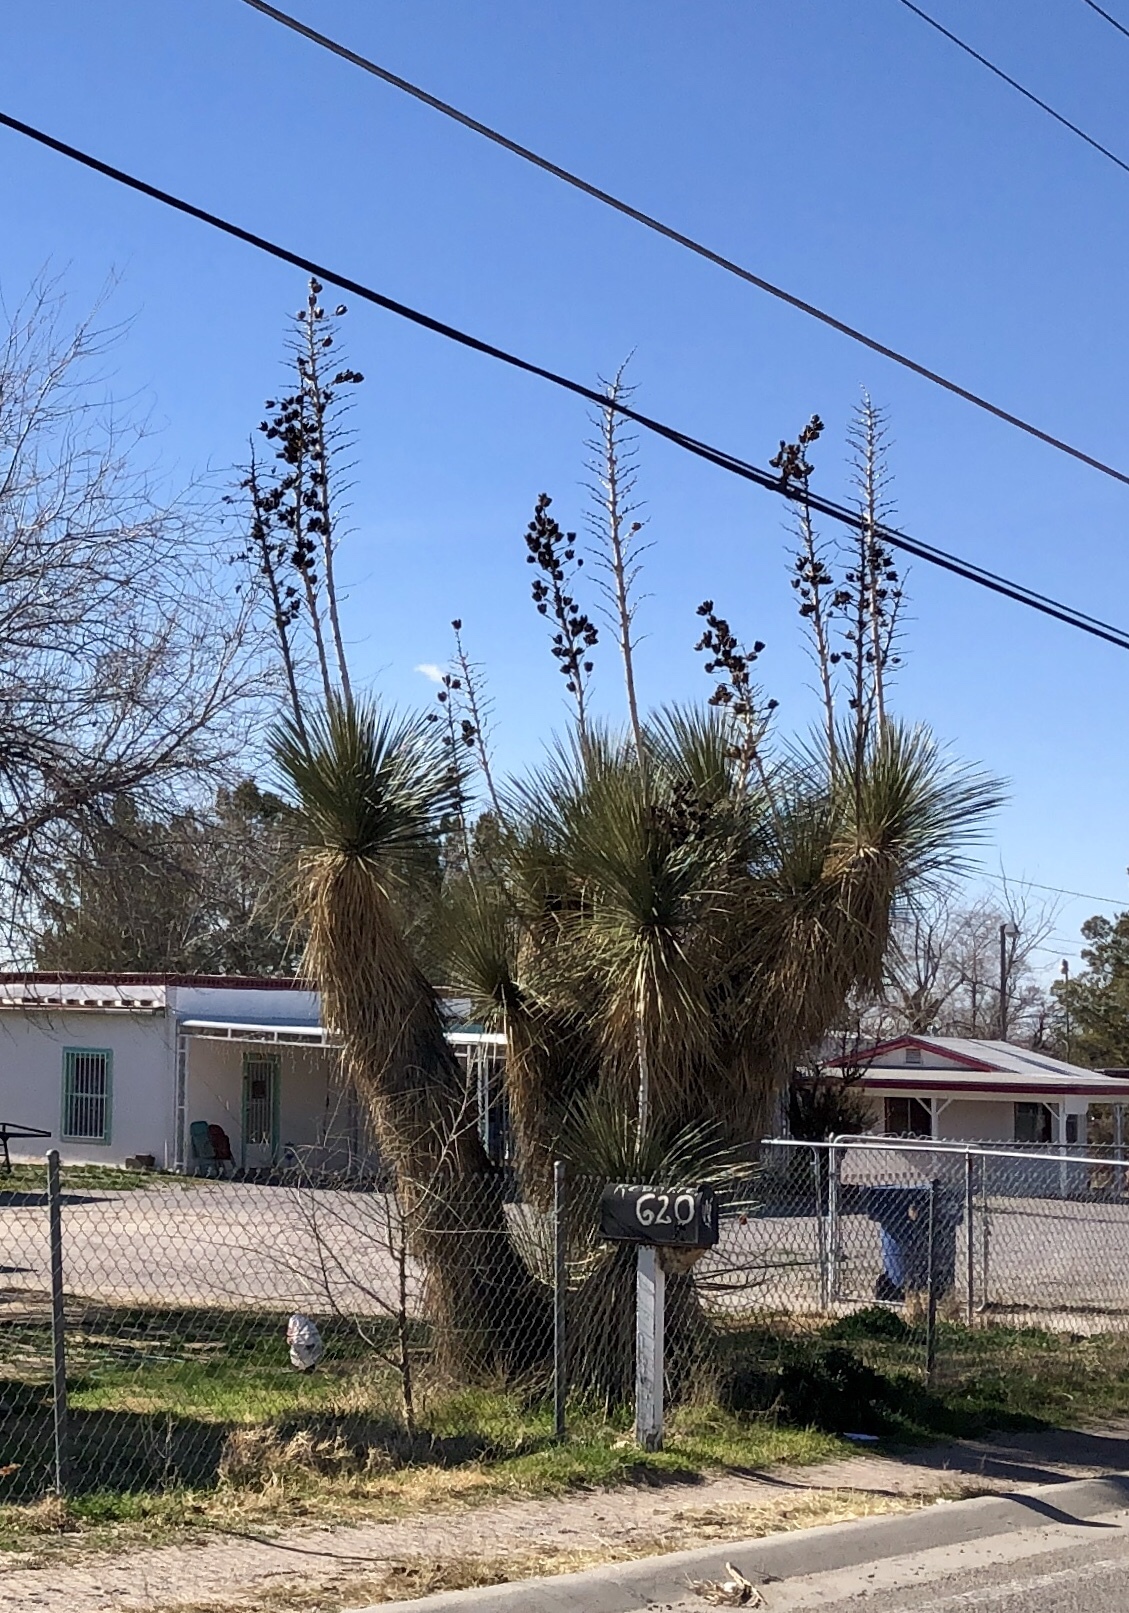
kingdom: Plantae
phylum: Tracheophyta
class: Liliopsida
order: Asparagales
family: Asparagaceae
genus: Yucca
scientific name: Yucca elata
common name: Palmella
